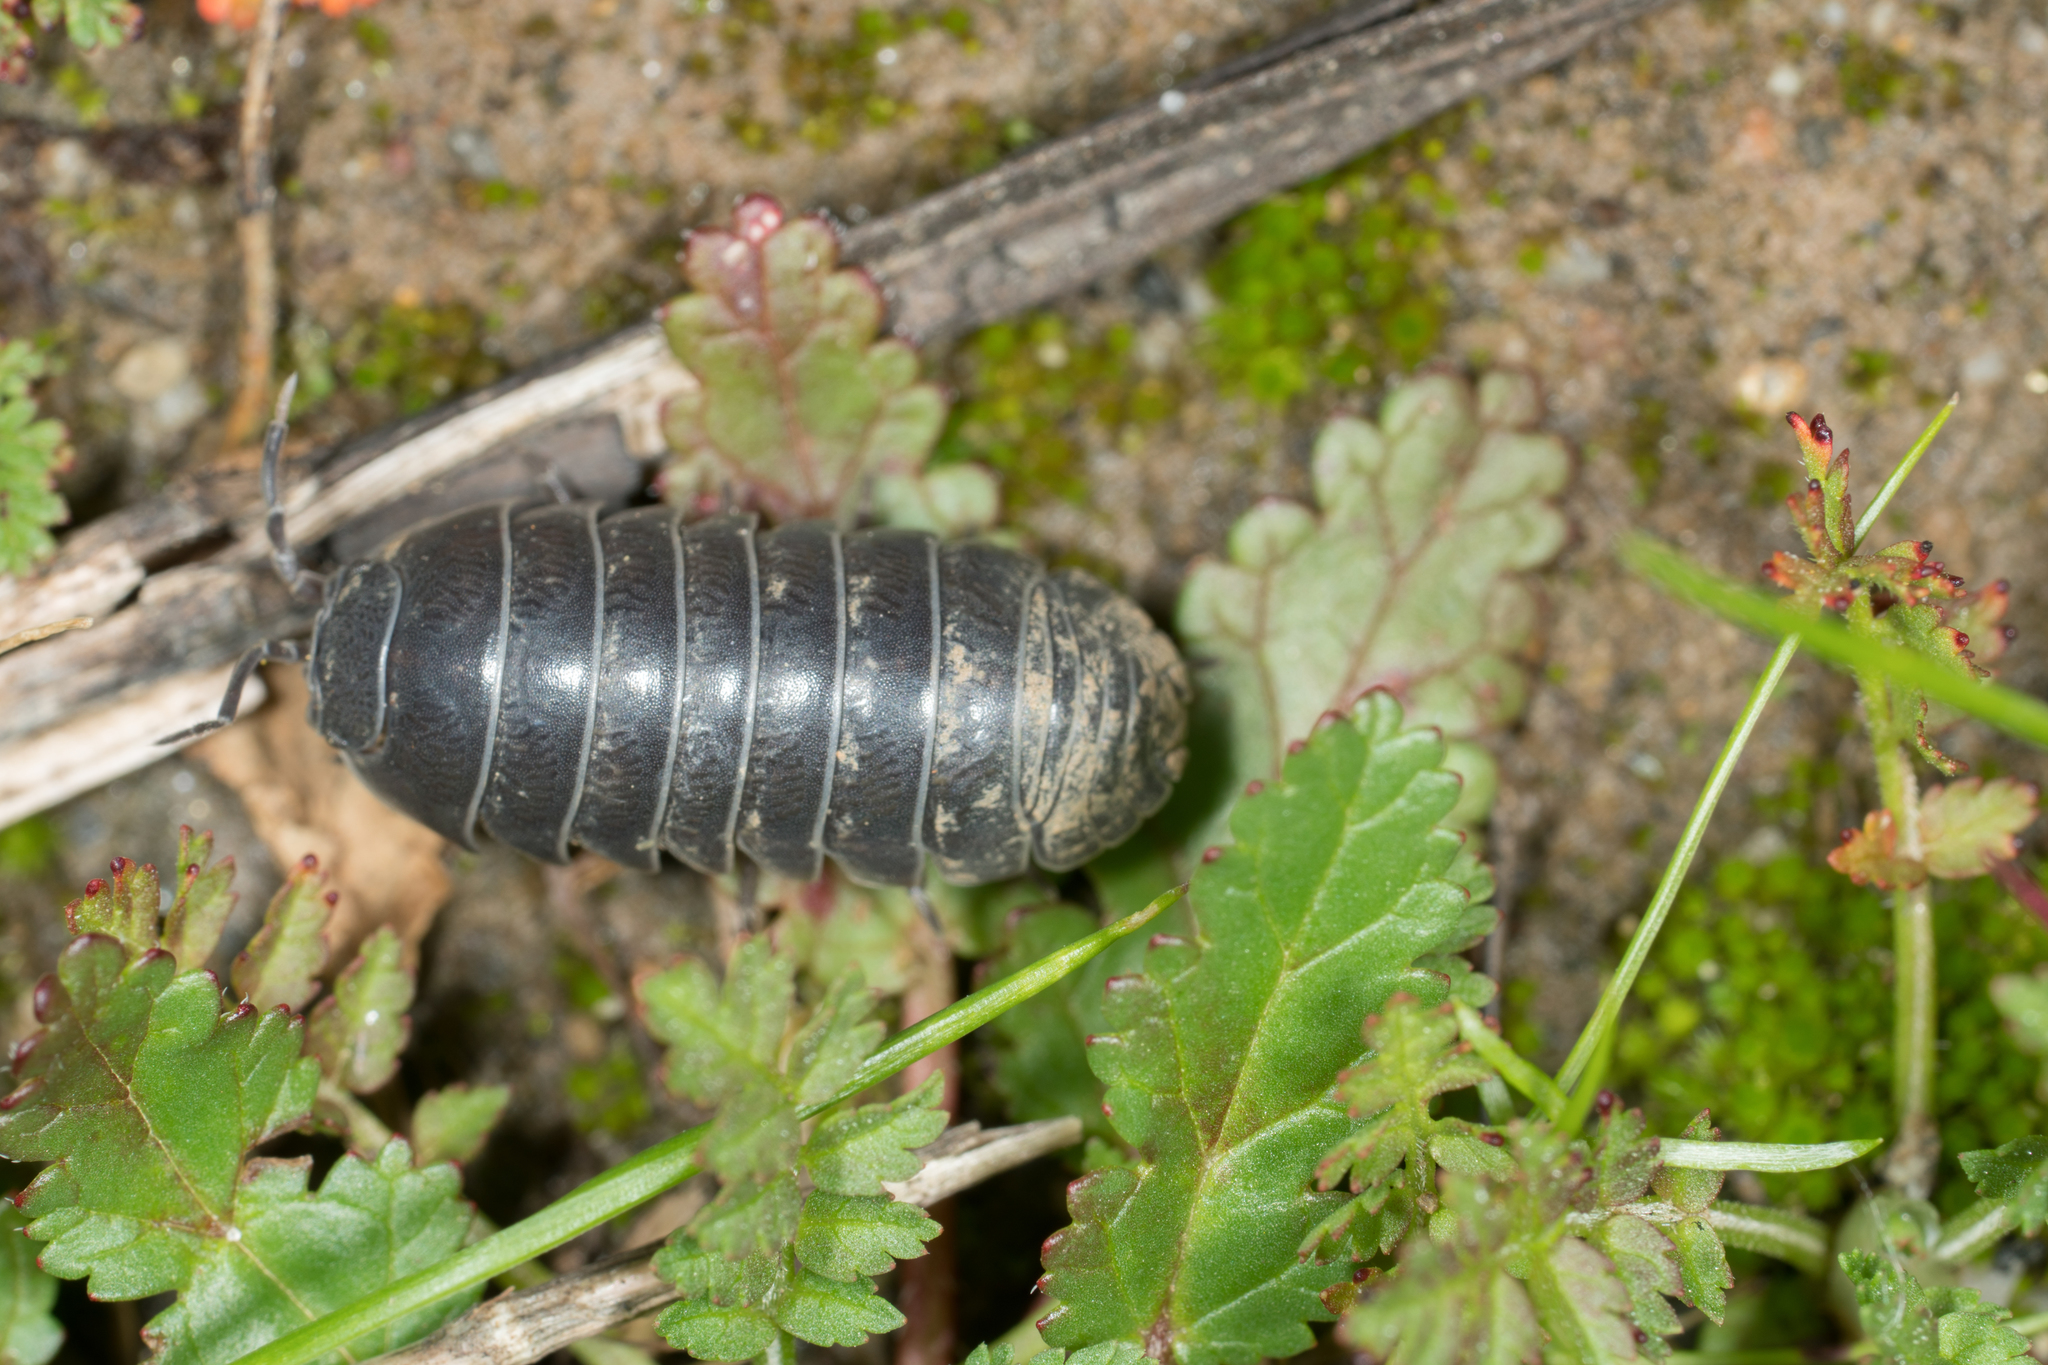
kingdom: Animalia
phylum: Arthropoda
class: Malacostraca
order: Isopoda
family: Armadillidiidae
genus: Armadillidium
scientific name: Armadillidium vulgare
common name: Common pill woodlouse
